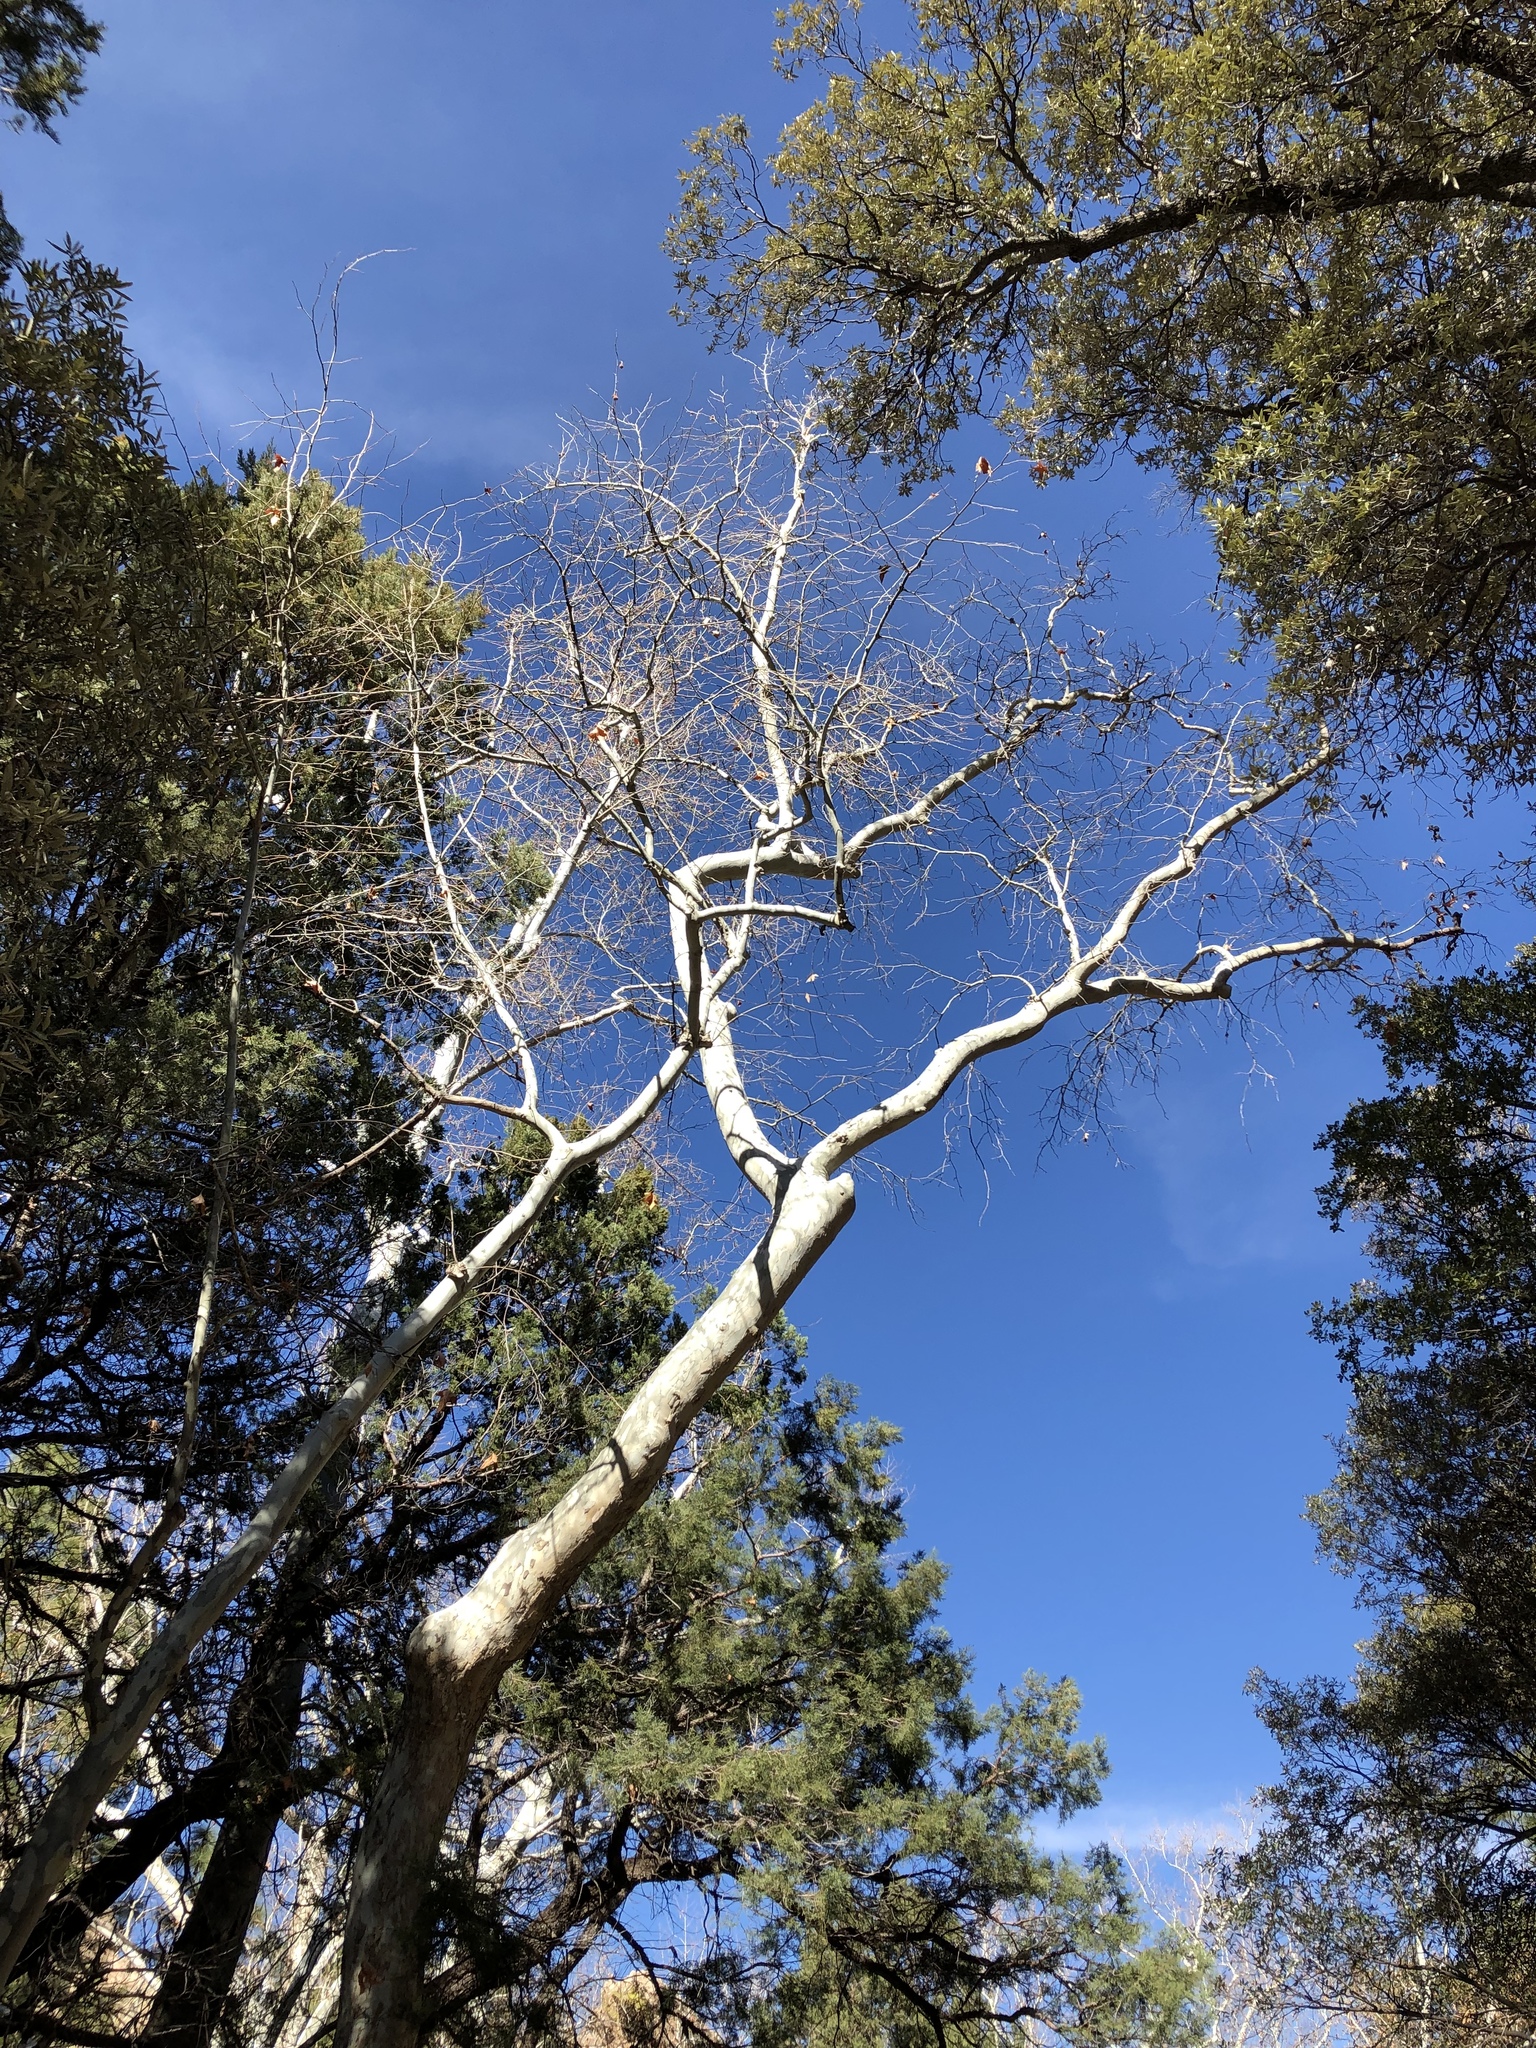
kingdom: Plantae
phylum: Tracheophyta
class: Magnoliopsida
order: Proteales
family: Platanaceae
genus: Platanus
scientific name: Platanus wrightii
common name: Arizona sycamore
